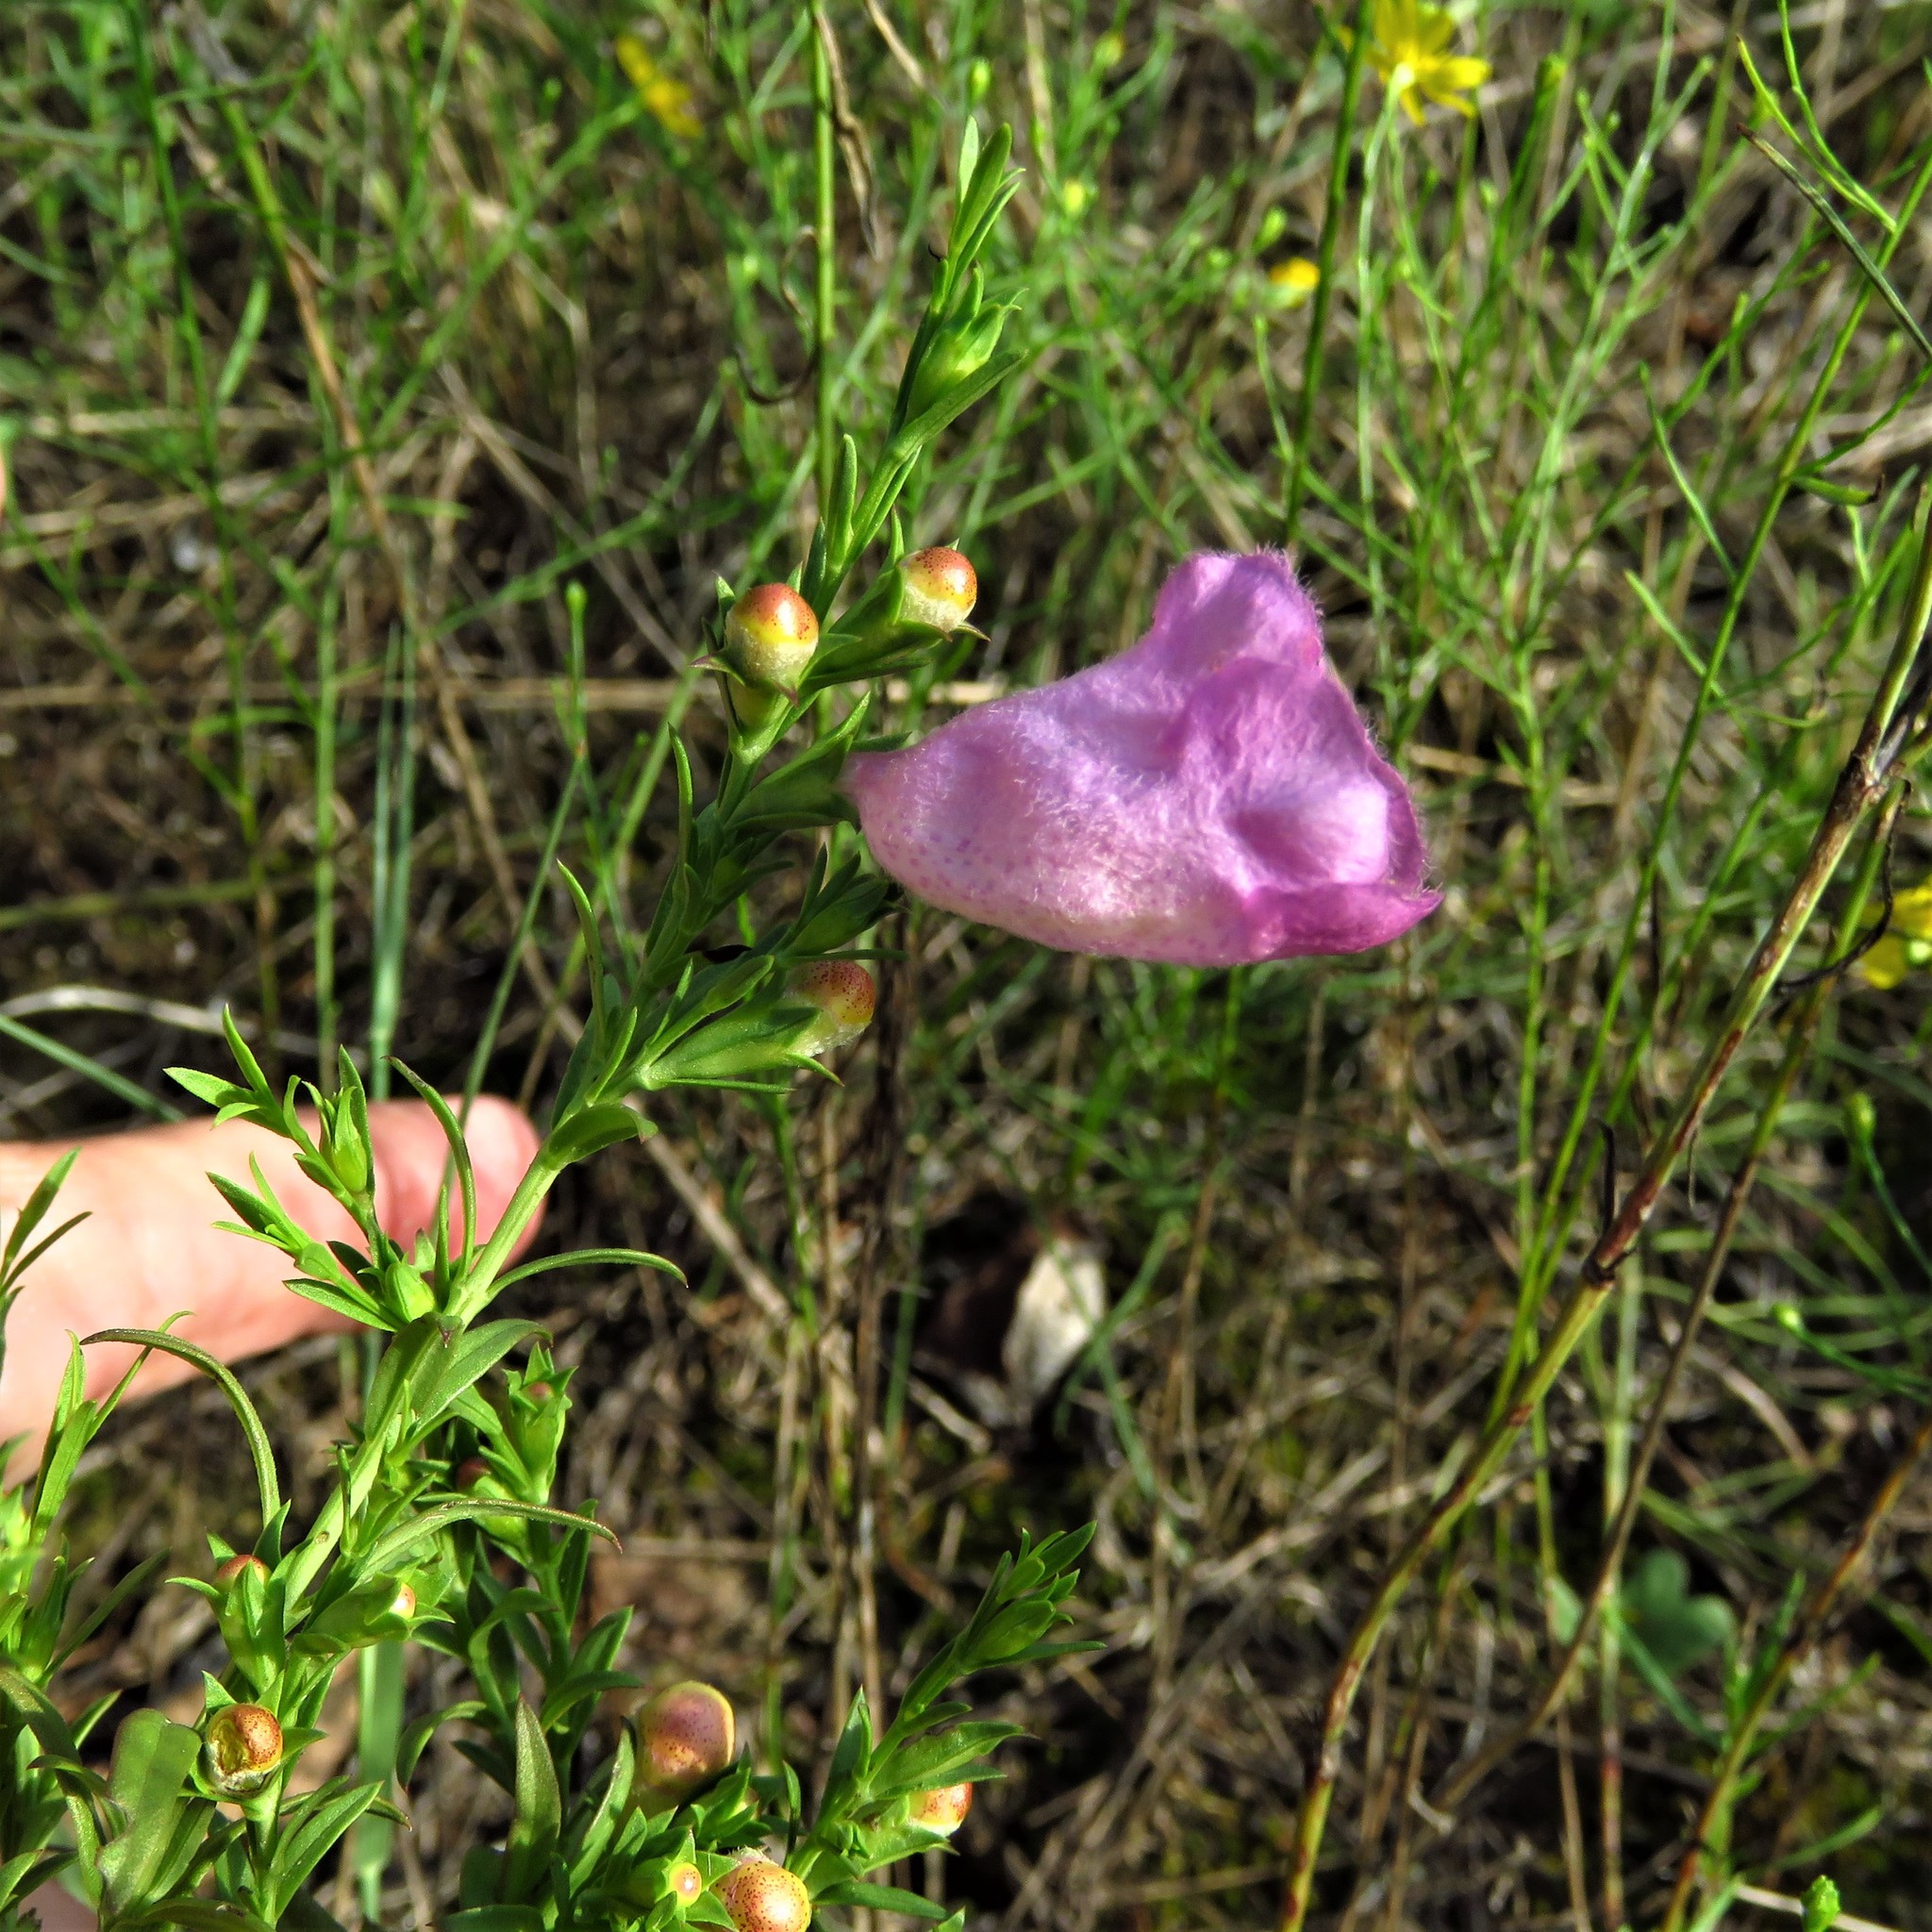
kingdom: Plantae
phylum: Tracheophyta
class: Magnoliopsida
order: Lamiales
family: Orobanchaceae
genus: Agalinis
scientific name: Agalinis heterophylla
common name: Prairie agalinis
